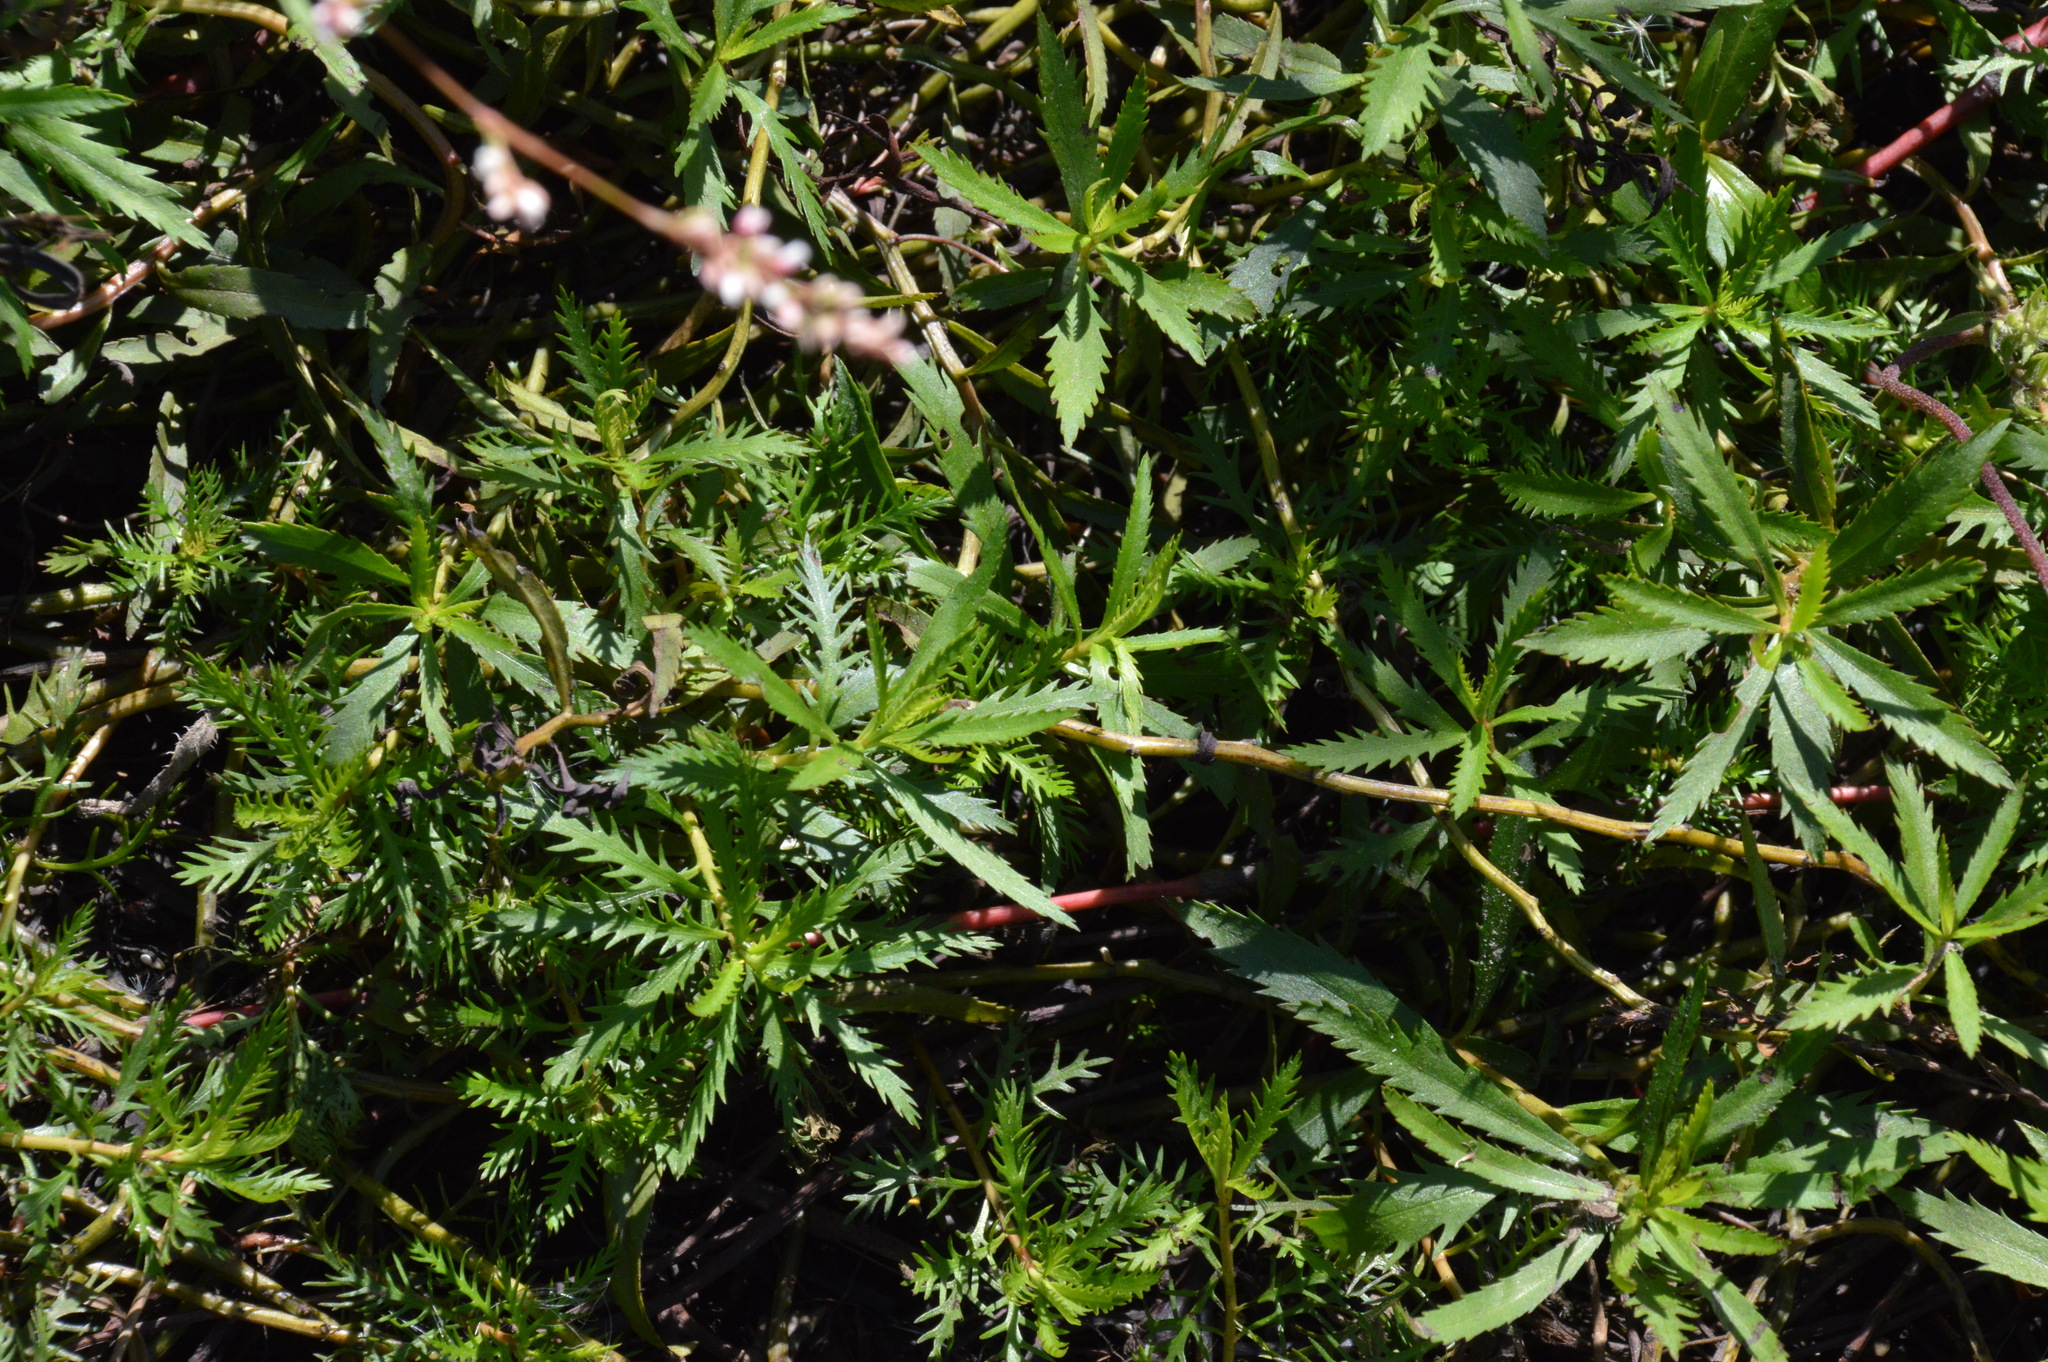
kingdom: Plantae
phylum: Tracheophyta
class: Magnoliopsida
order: Saxifragales
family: Haloragaceae
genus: Proserpinaca
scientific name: Proserpinaca palustris
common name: Marsh mermaidweed
